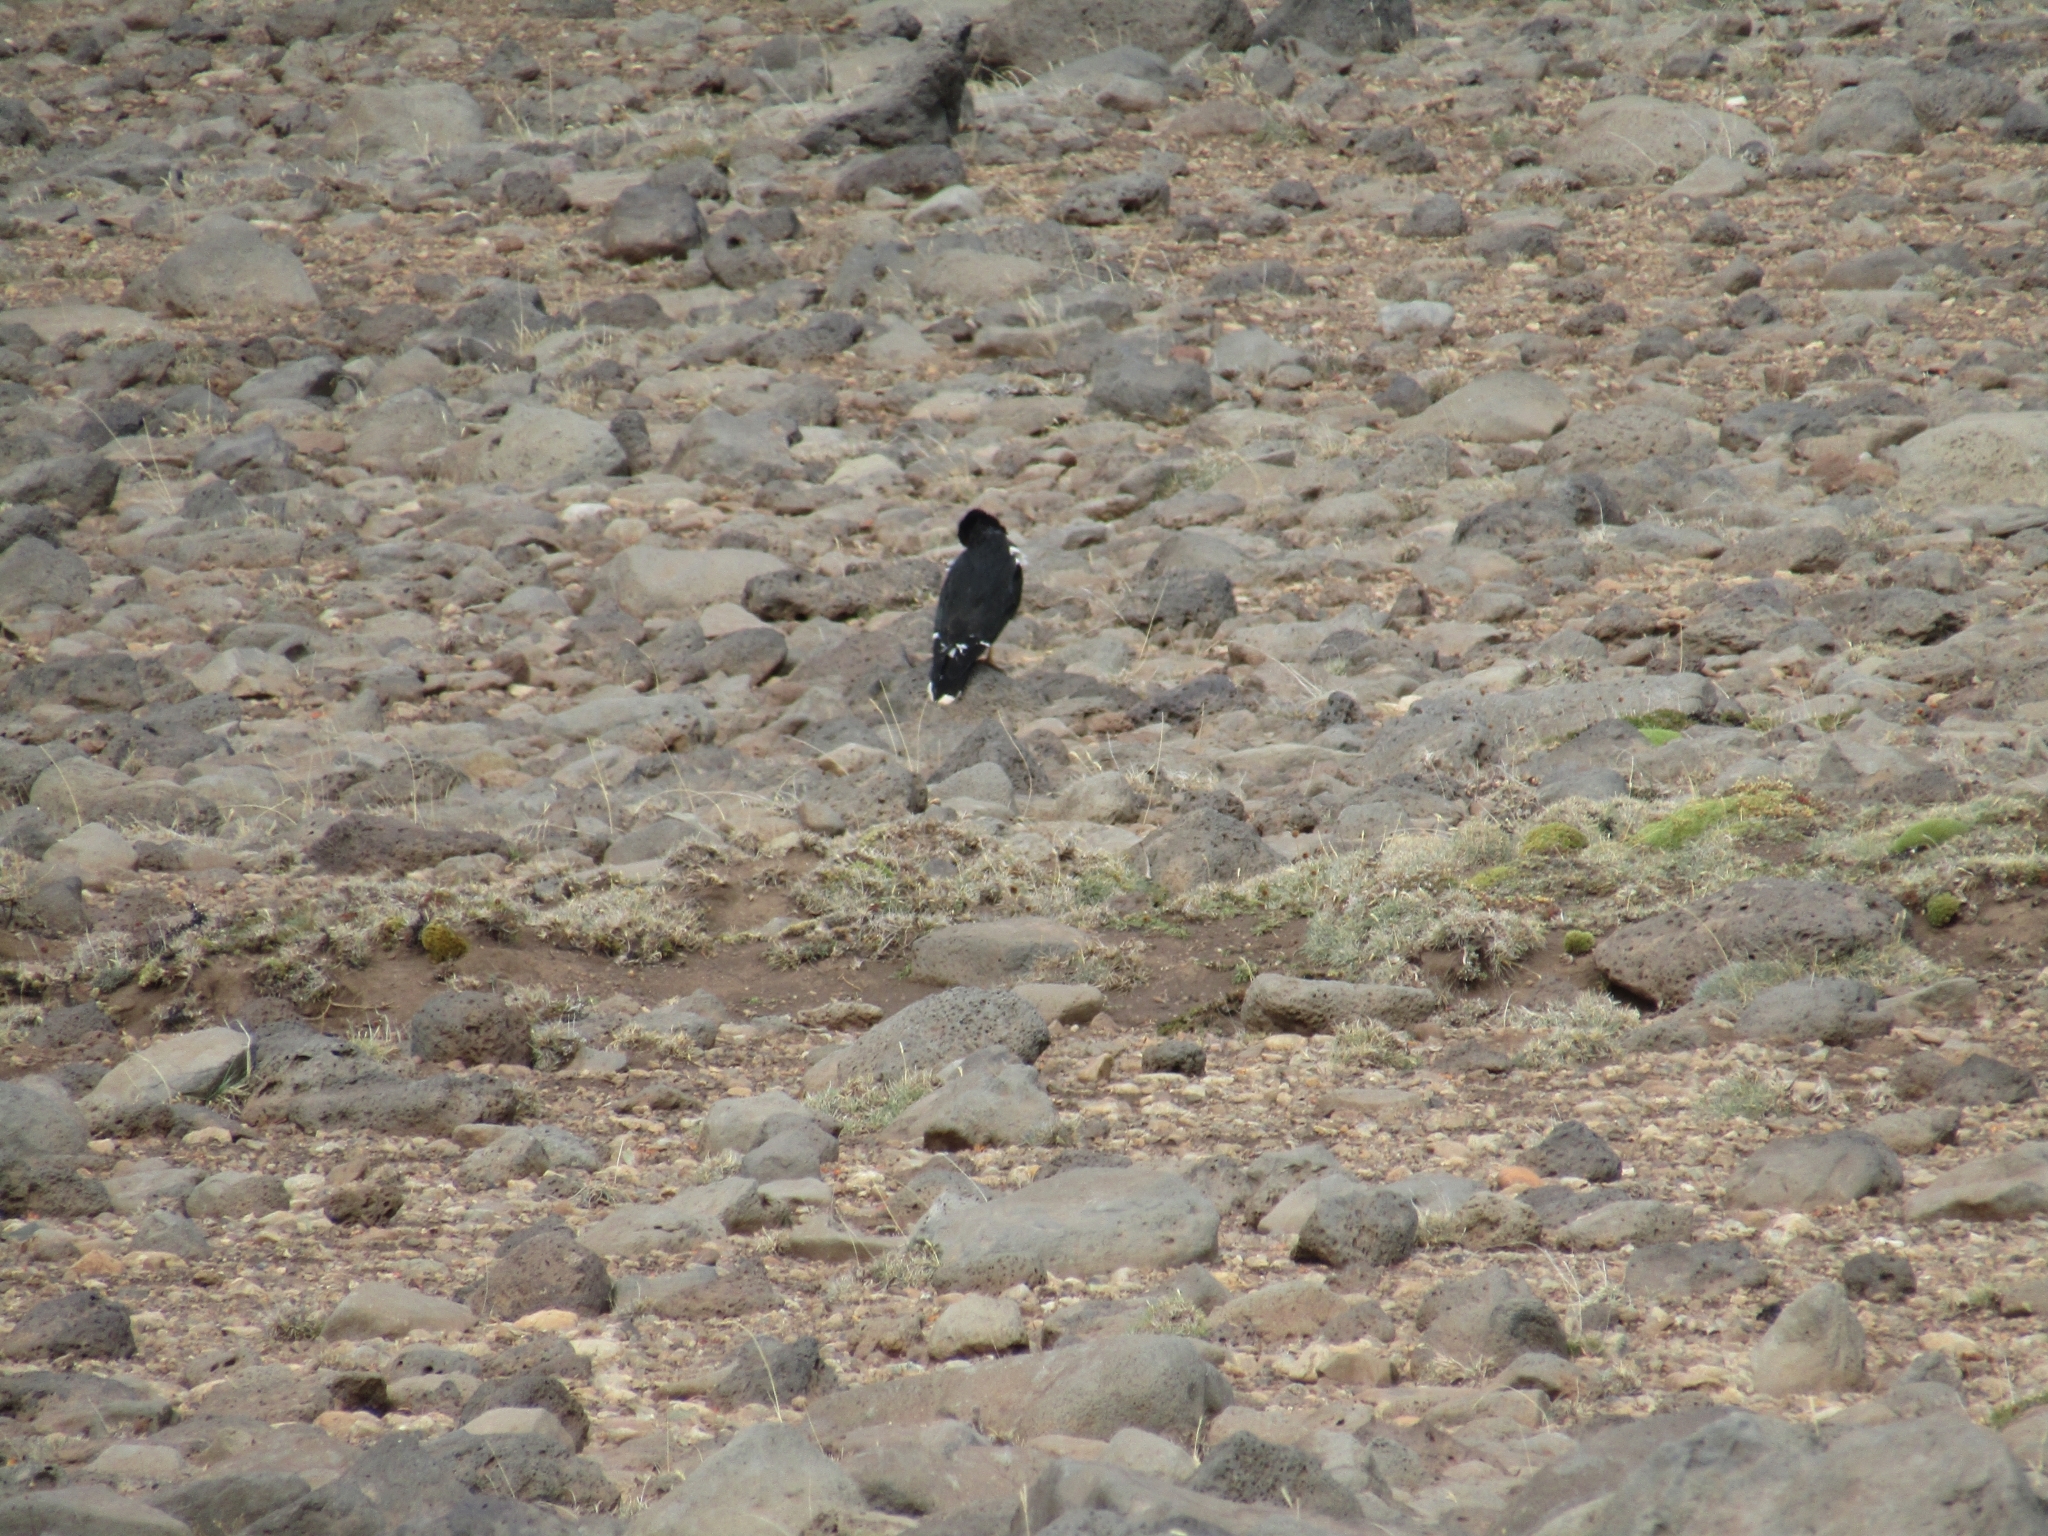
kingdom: Animalia
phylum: Chordata
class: Aves
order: Falconiformes
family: Falconidae
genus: Daptrius
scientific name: Daptrius
